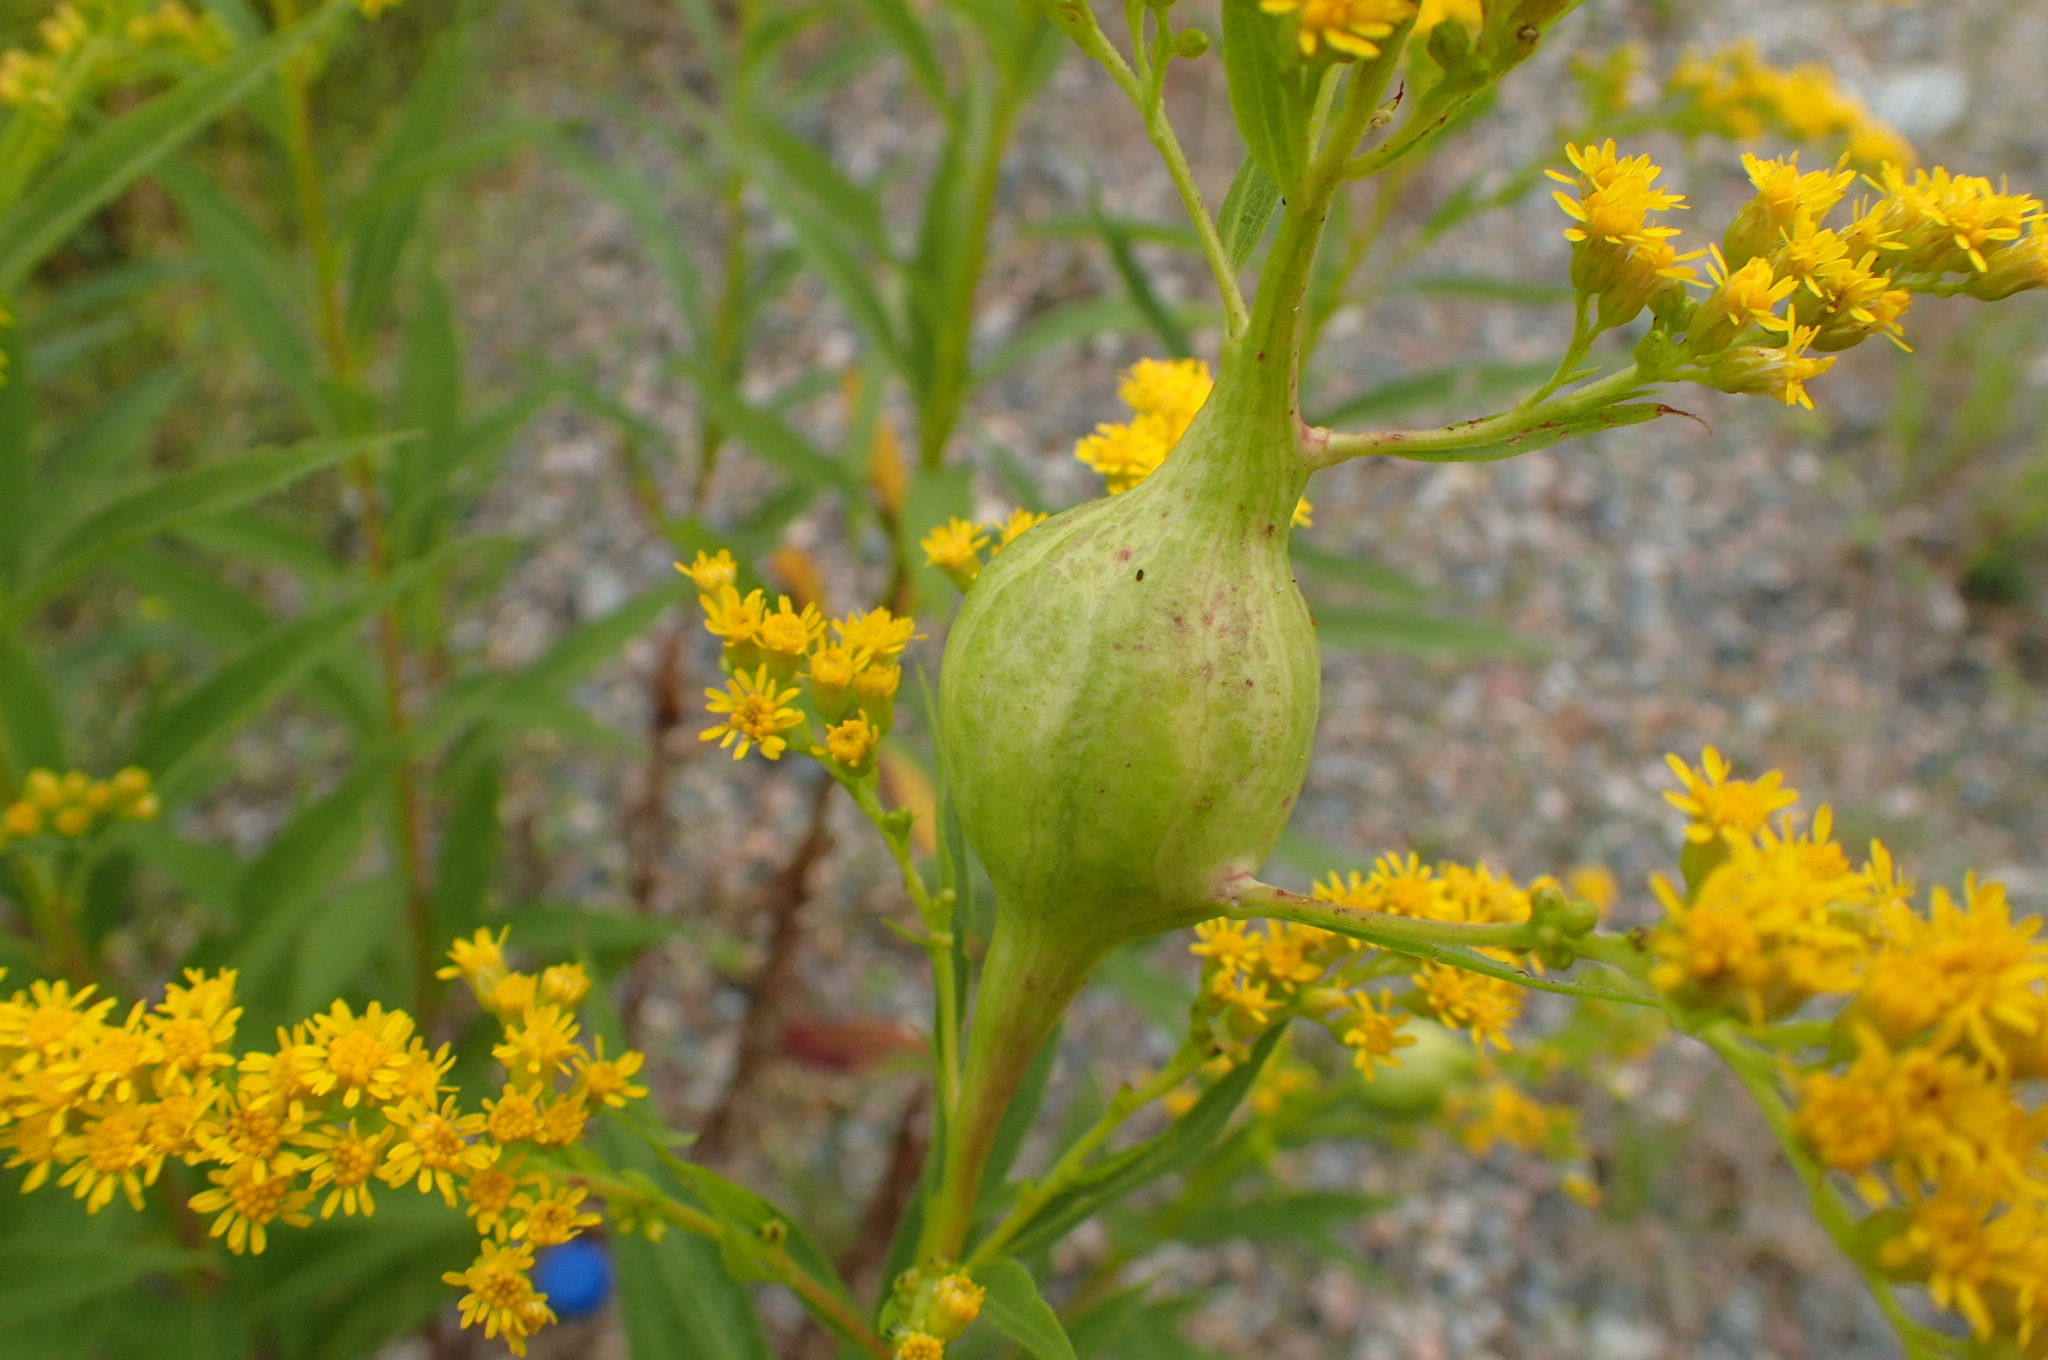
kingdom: Animalia
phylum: Arthropoda
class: Insecta
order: Diptera
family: Tephritidae
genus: Eurosta
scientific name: Eurosta solidaginis
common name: Goldenrod gall fly
